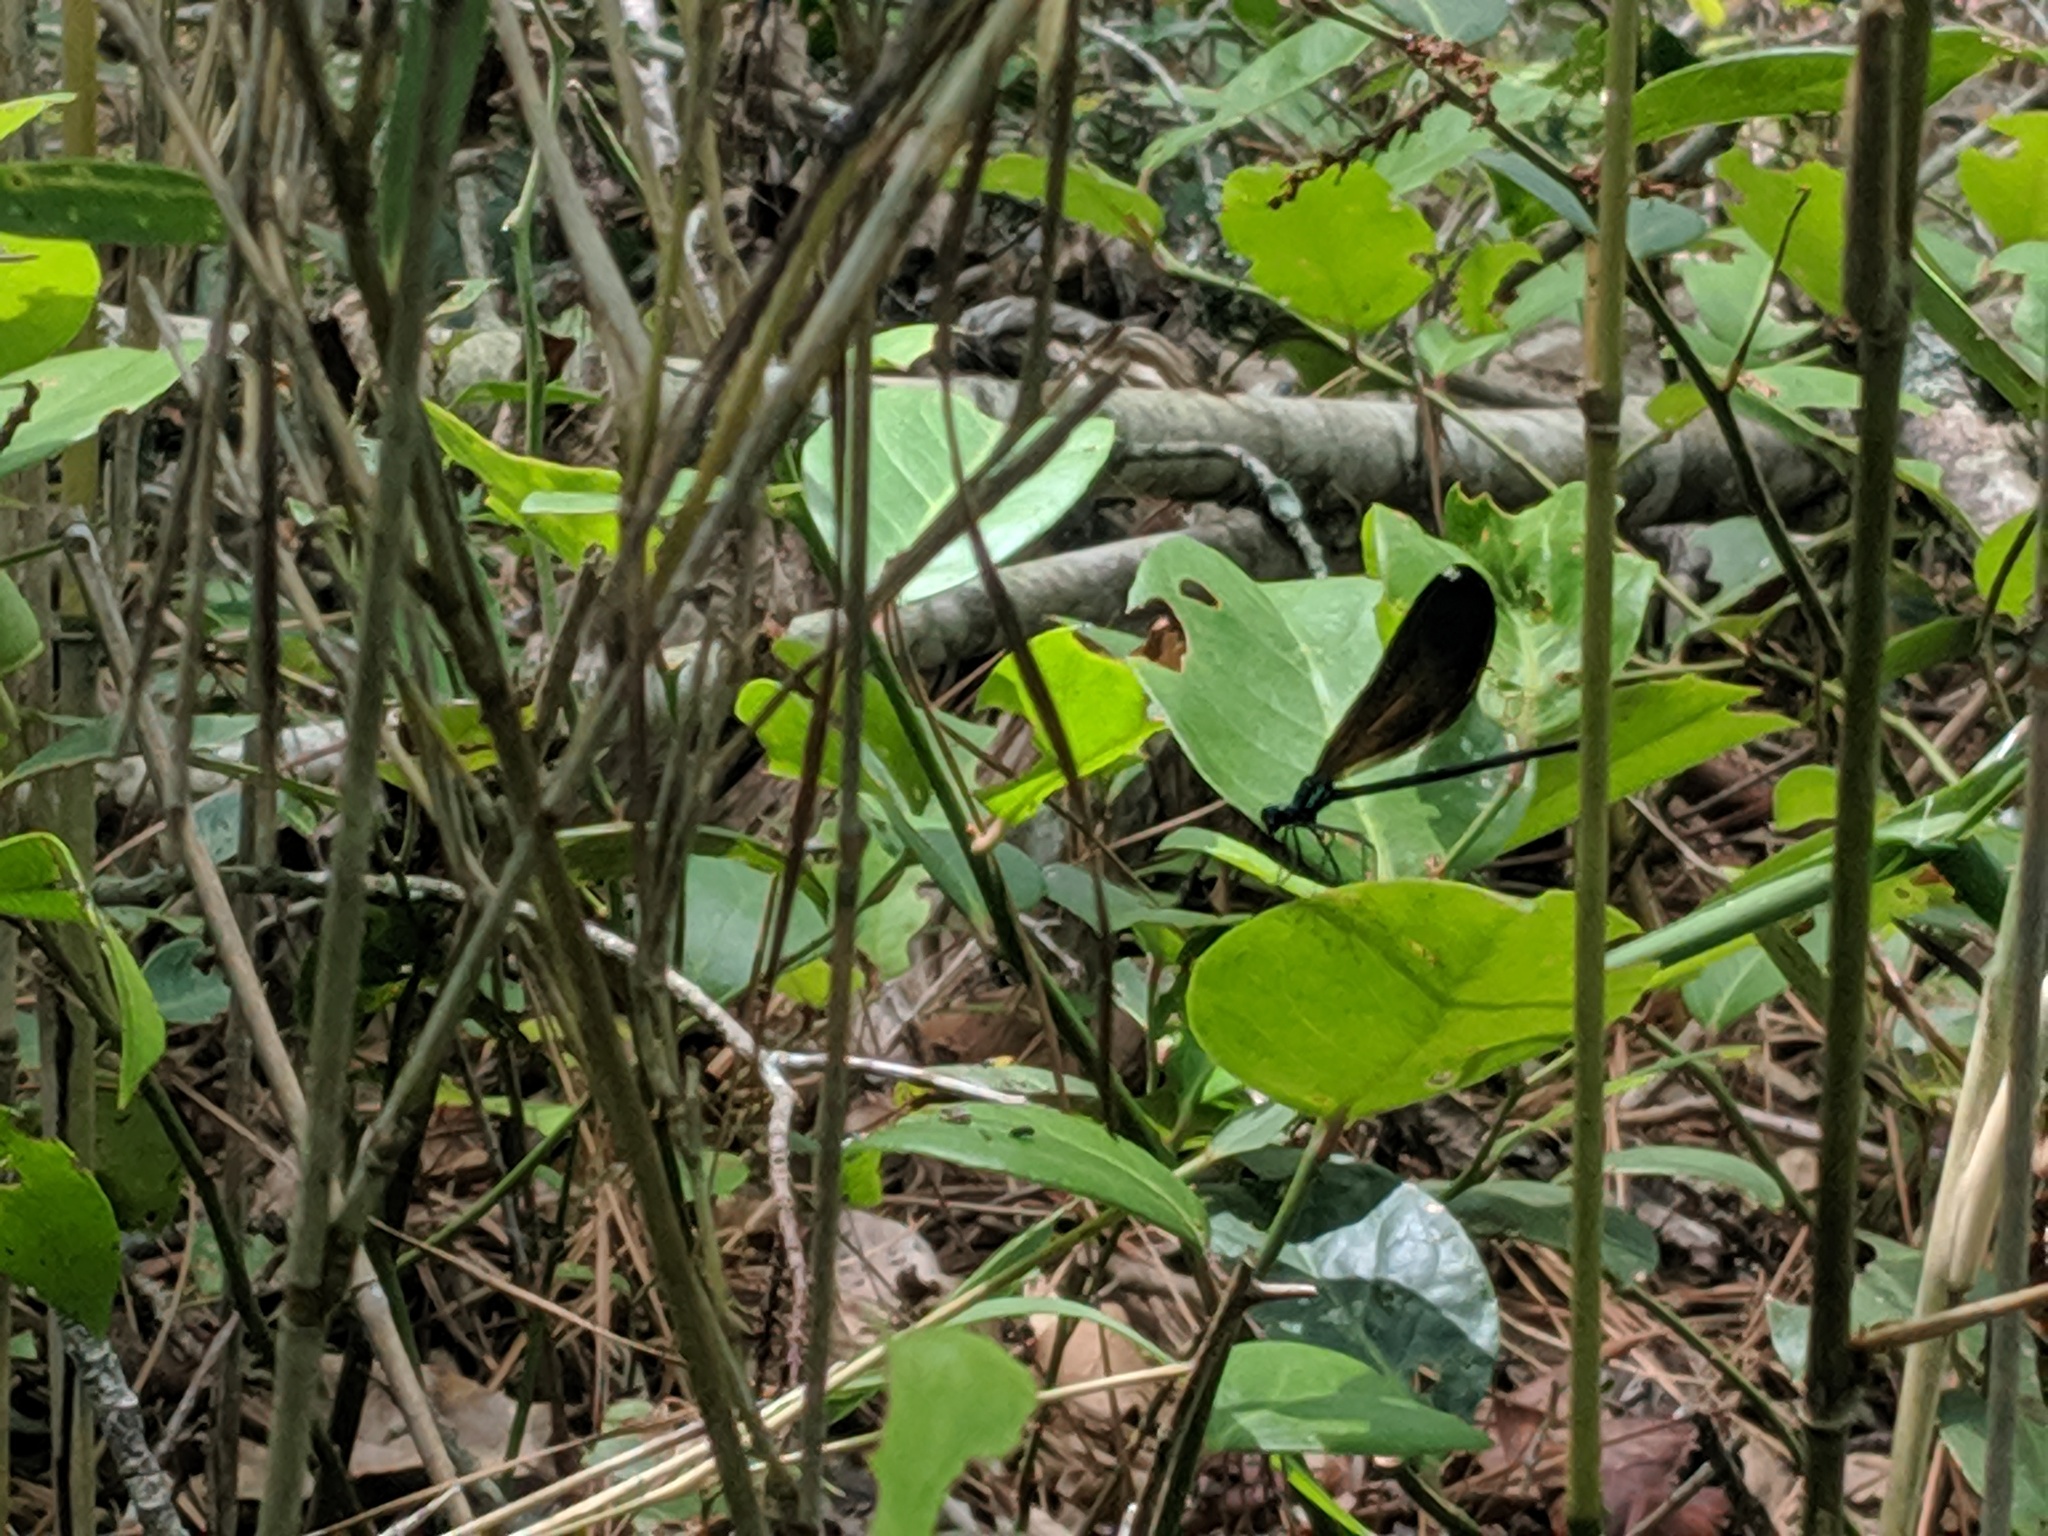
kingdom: Animalia
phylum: Arthropoda
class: Insecta
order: Odonata
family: Calopterygidae
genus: Calopteryx
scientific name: Calopteryx maculata
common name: Ebony jewelwing
